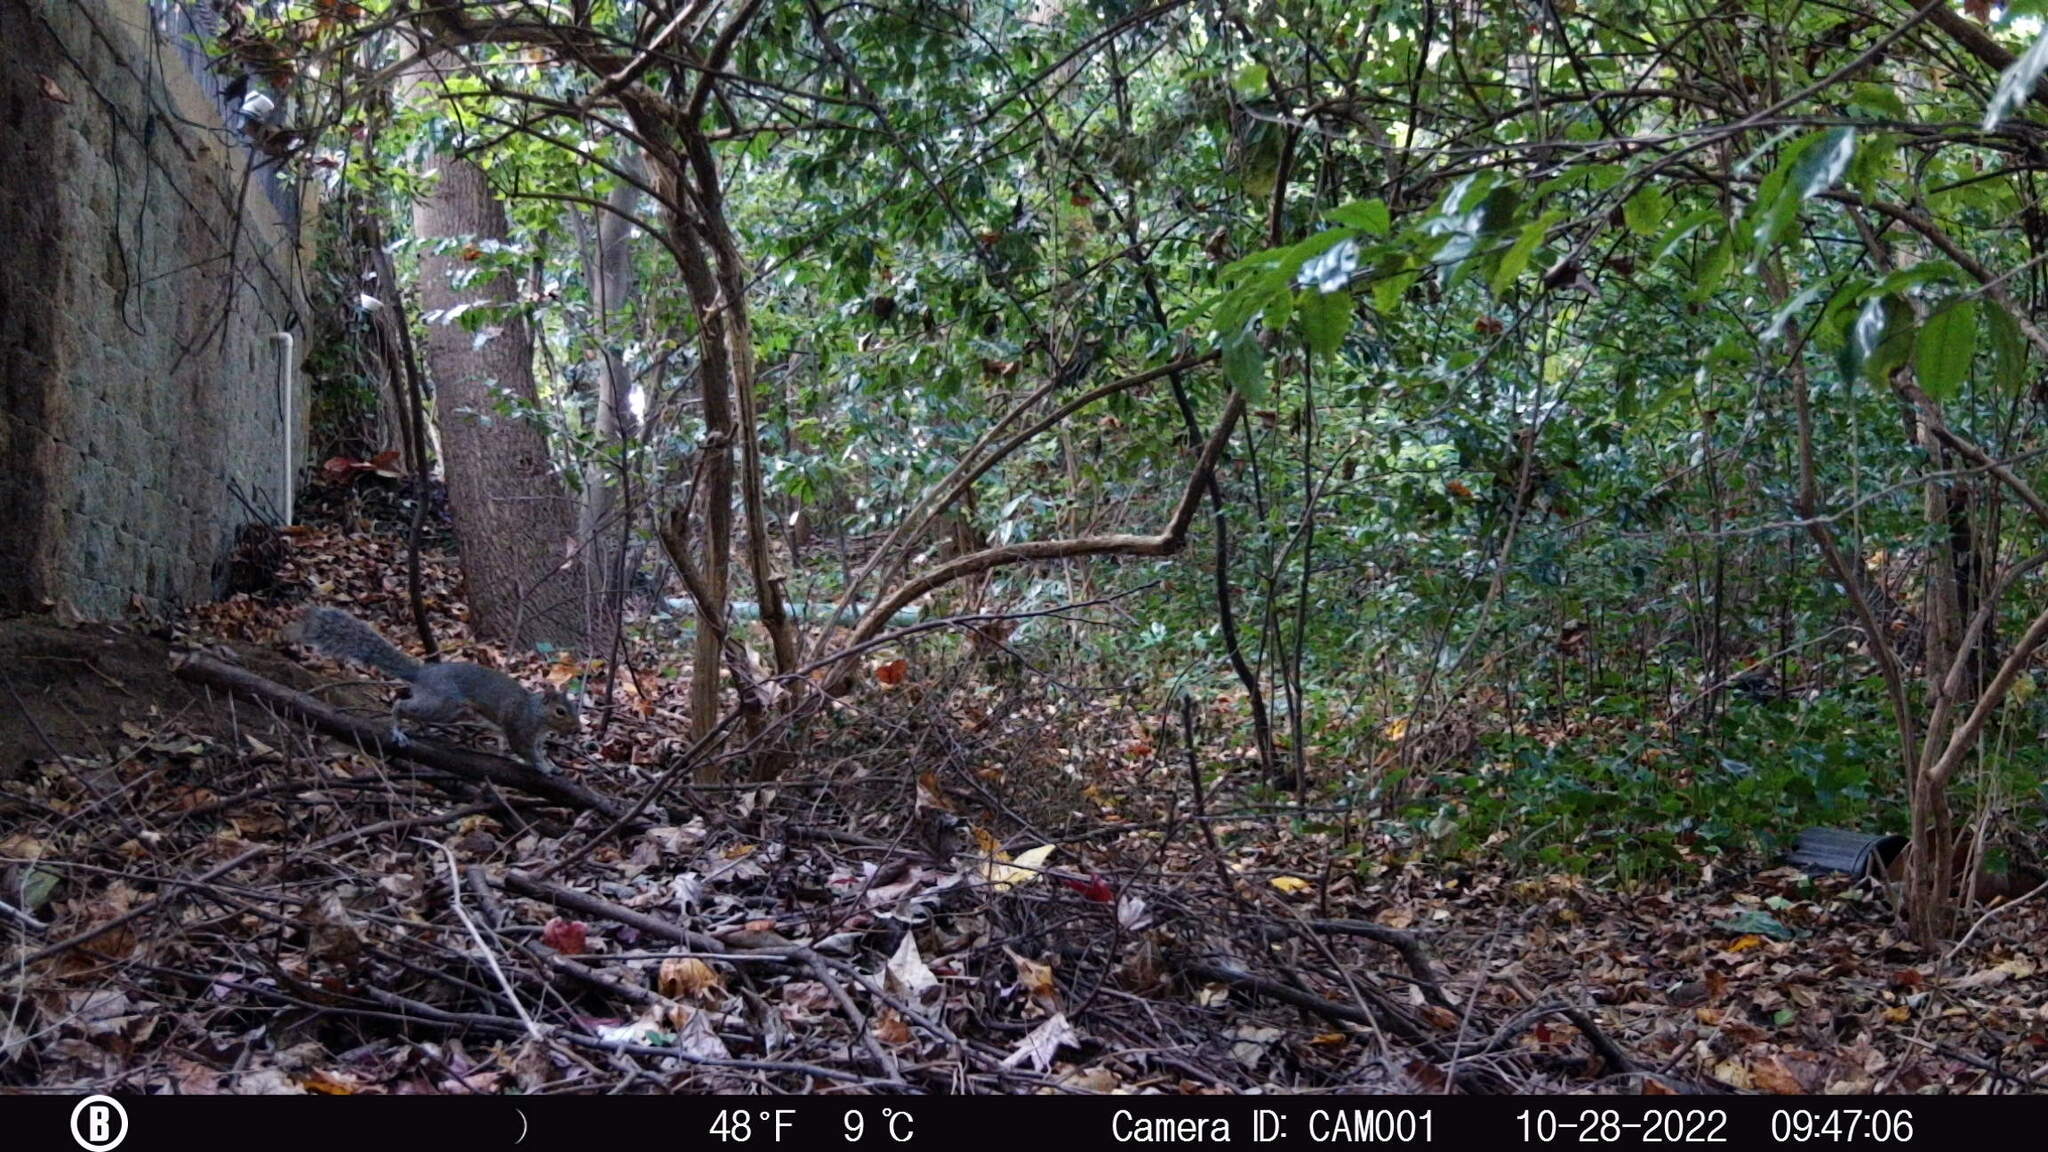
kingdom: Animalia
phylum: Chordata
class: Mammalia
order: Rodentia
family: Sciuridae
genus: Sciurus
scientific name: Sciurus carolinensis
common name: Eastern gray squirrel
